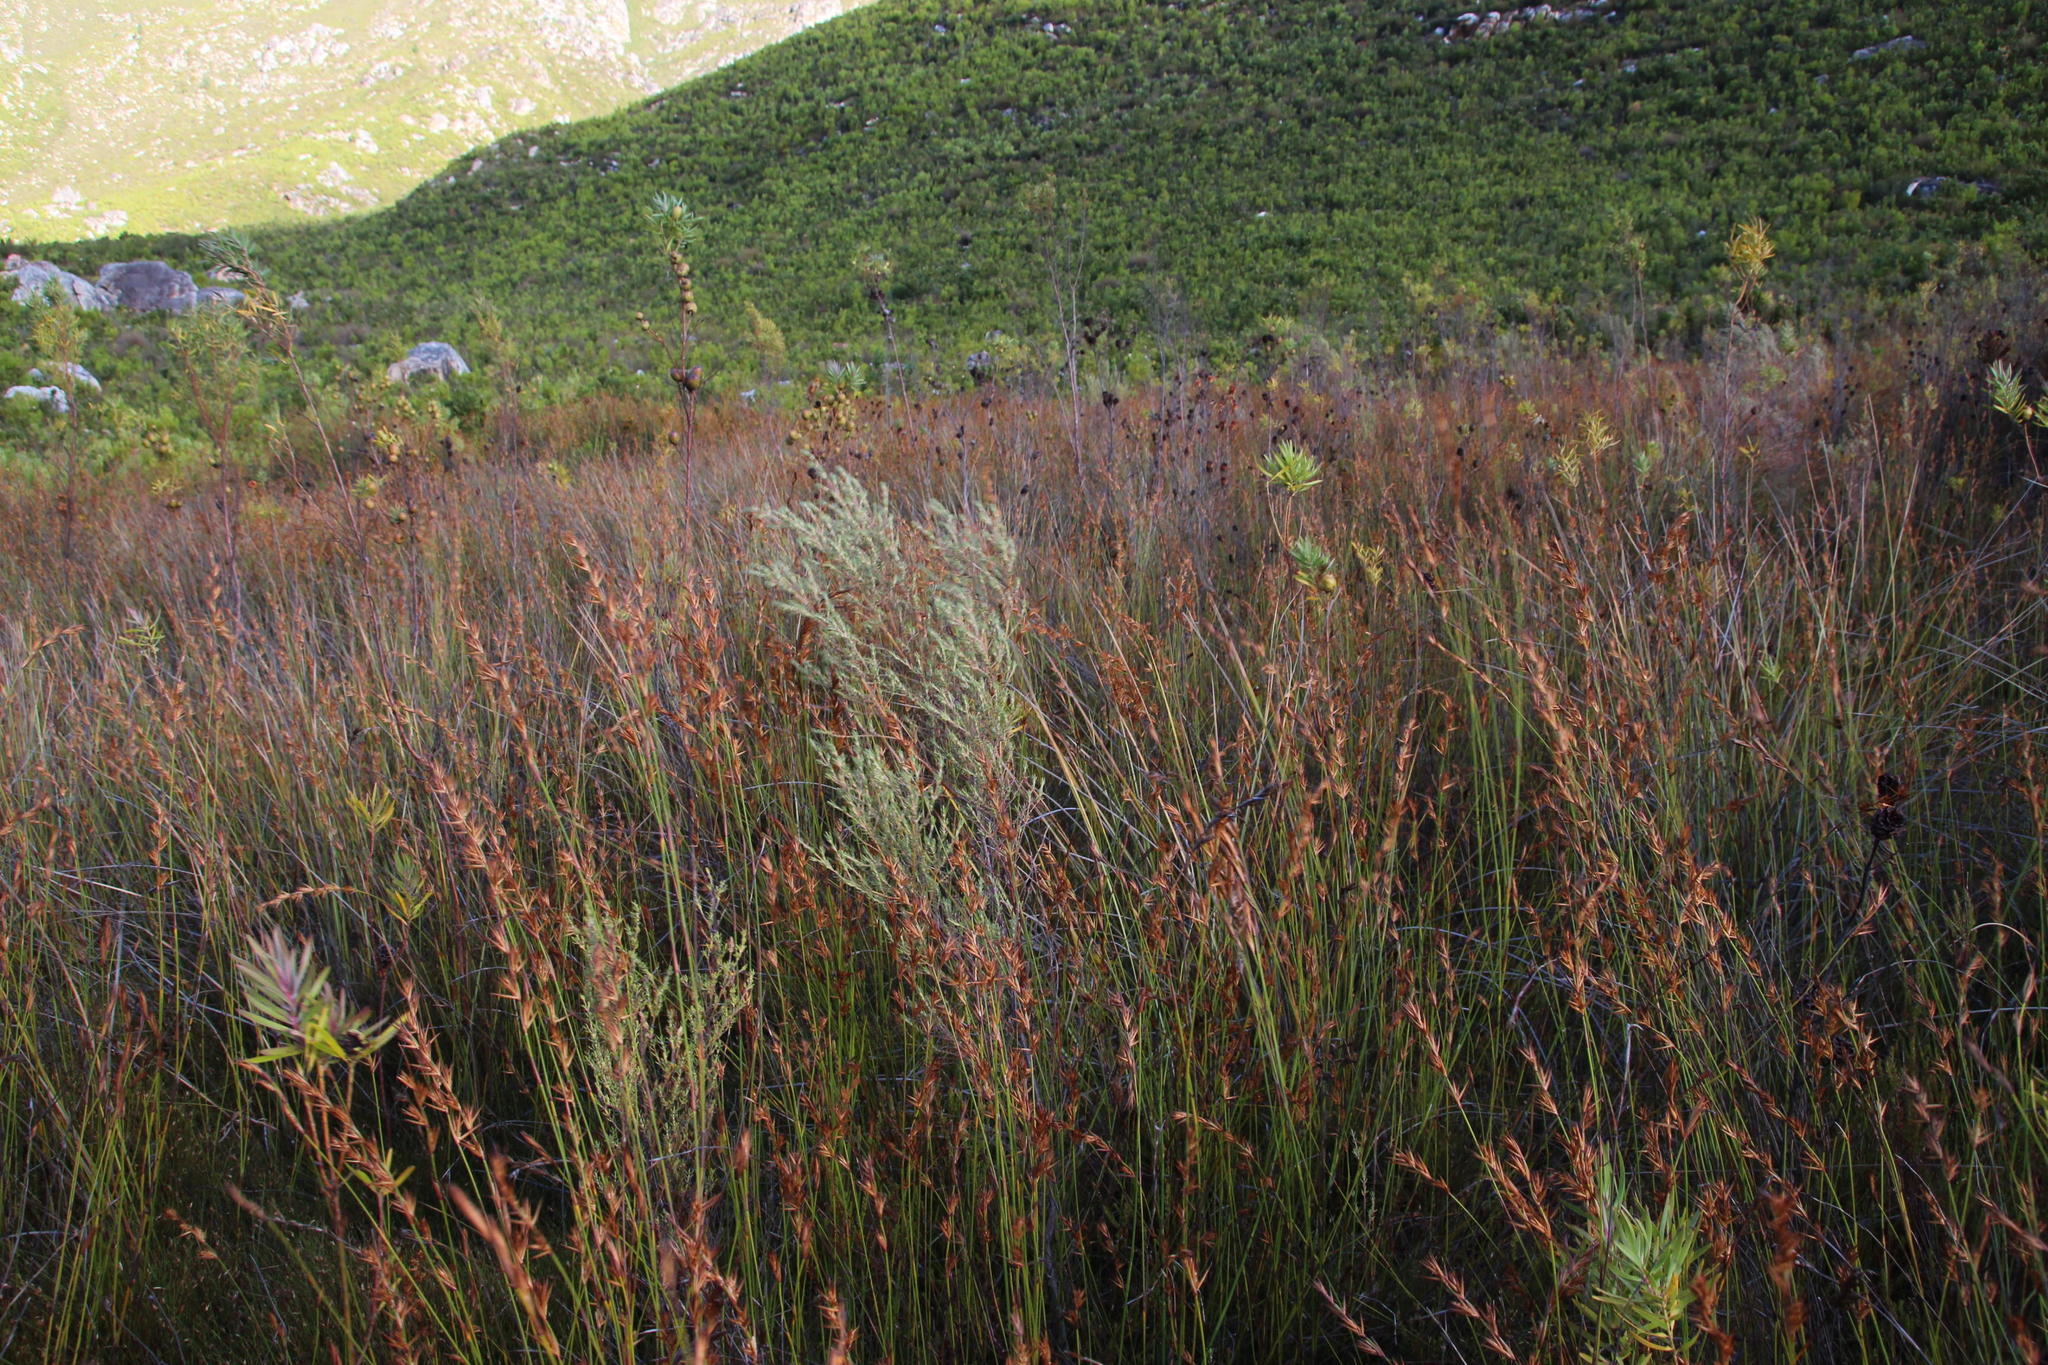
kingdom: Plantae
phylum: Tracheophyta
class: Magnoliopsida
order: Cornales
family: Grubbiaceae
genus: Grubbia
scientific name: Grubbia rosmarinifolia
